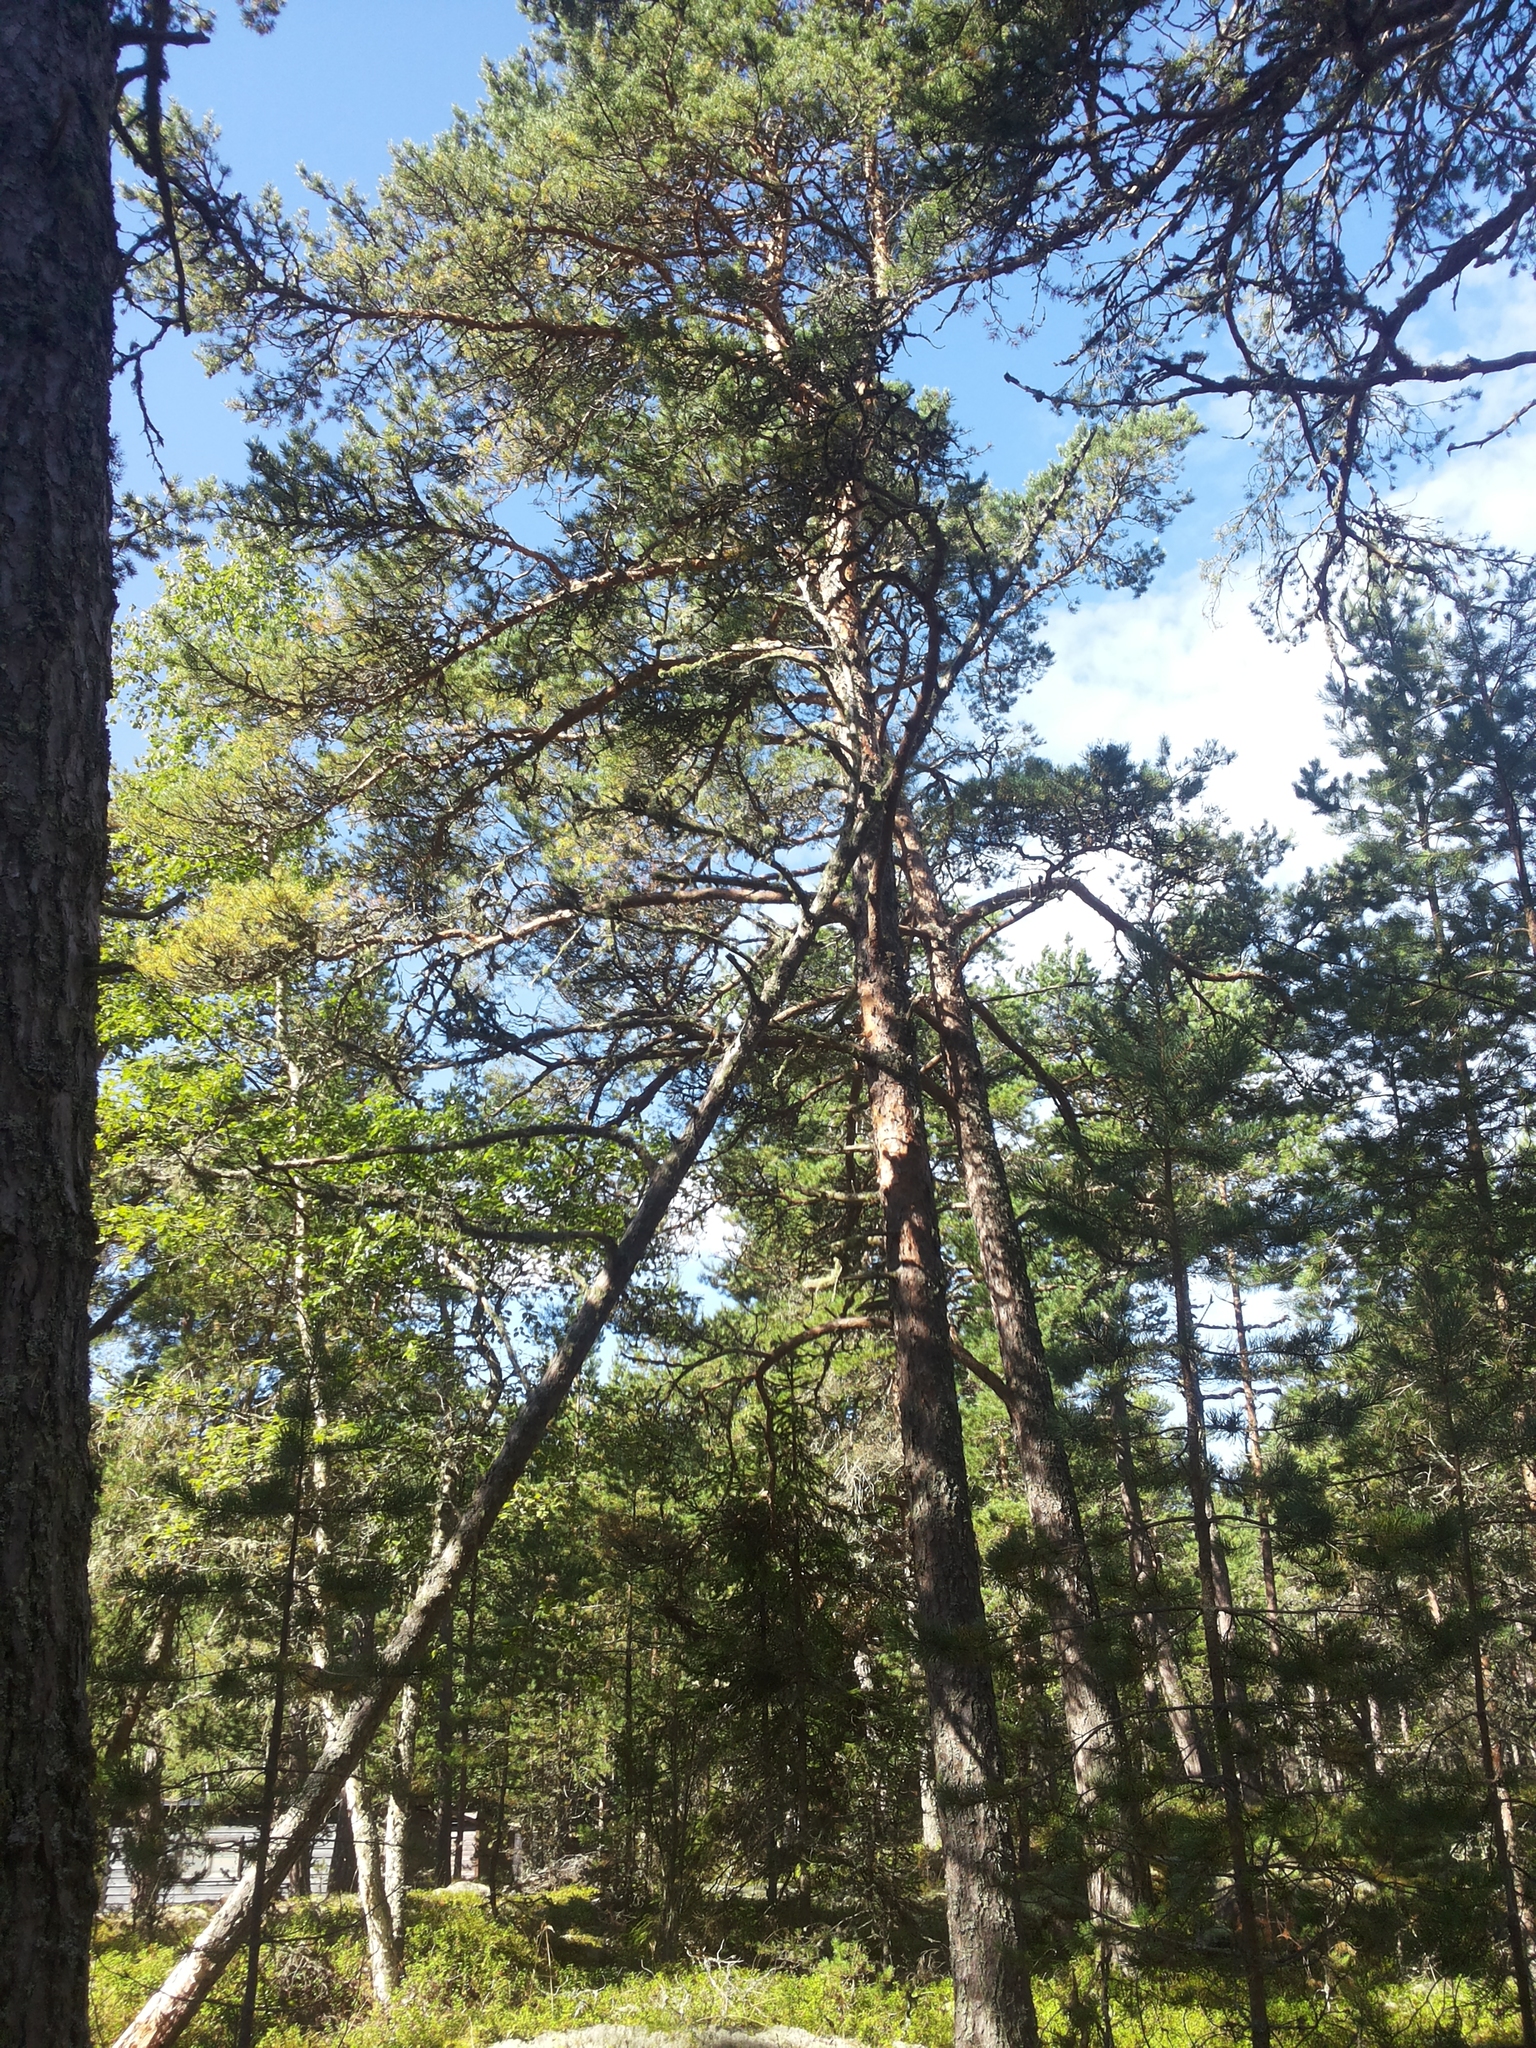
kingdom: Plantae
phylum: Tracheophyta
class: Pinopsida
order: Pinales
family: Pinaceae
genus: Pinus
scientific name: Pinus sylvestris
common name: Scots pine
